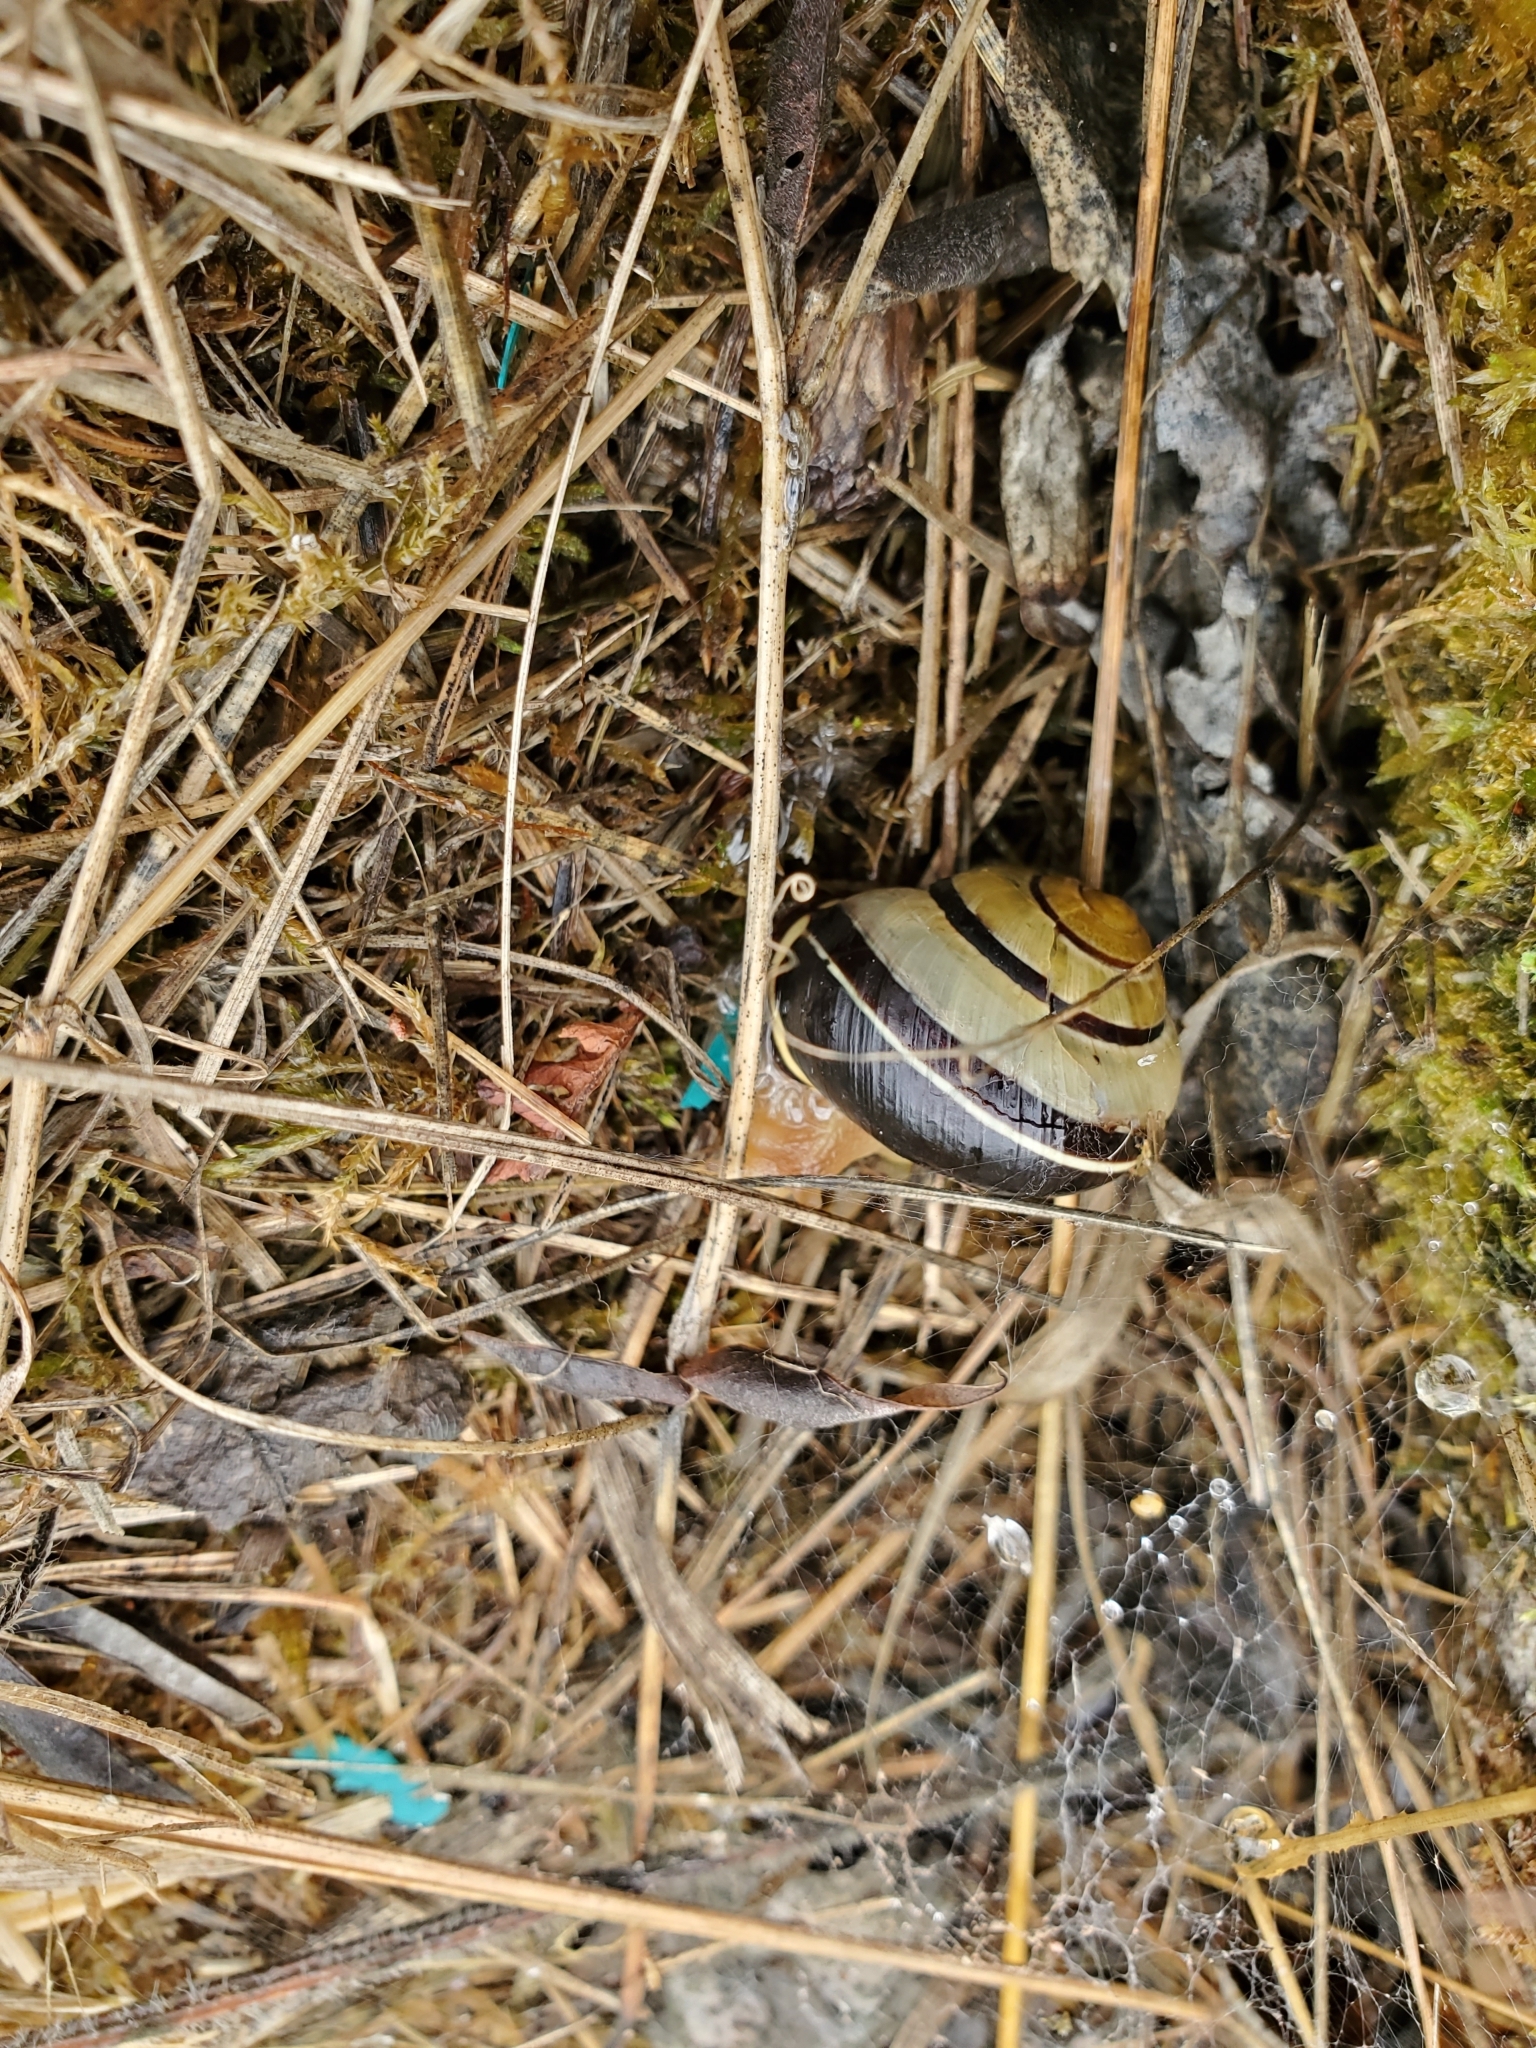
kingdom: Animalia
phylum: Mollusca
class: Gastropoda
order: Stylommatophora
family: Helicidae
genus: Cepaea
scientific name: Cepaea nemoralis
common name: Grovesnail
